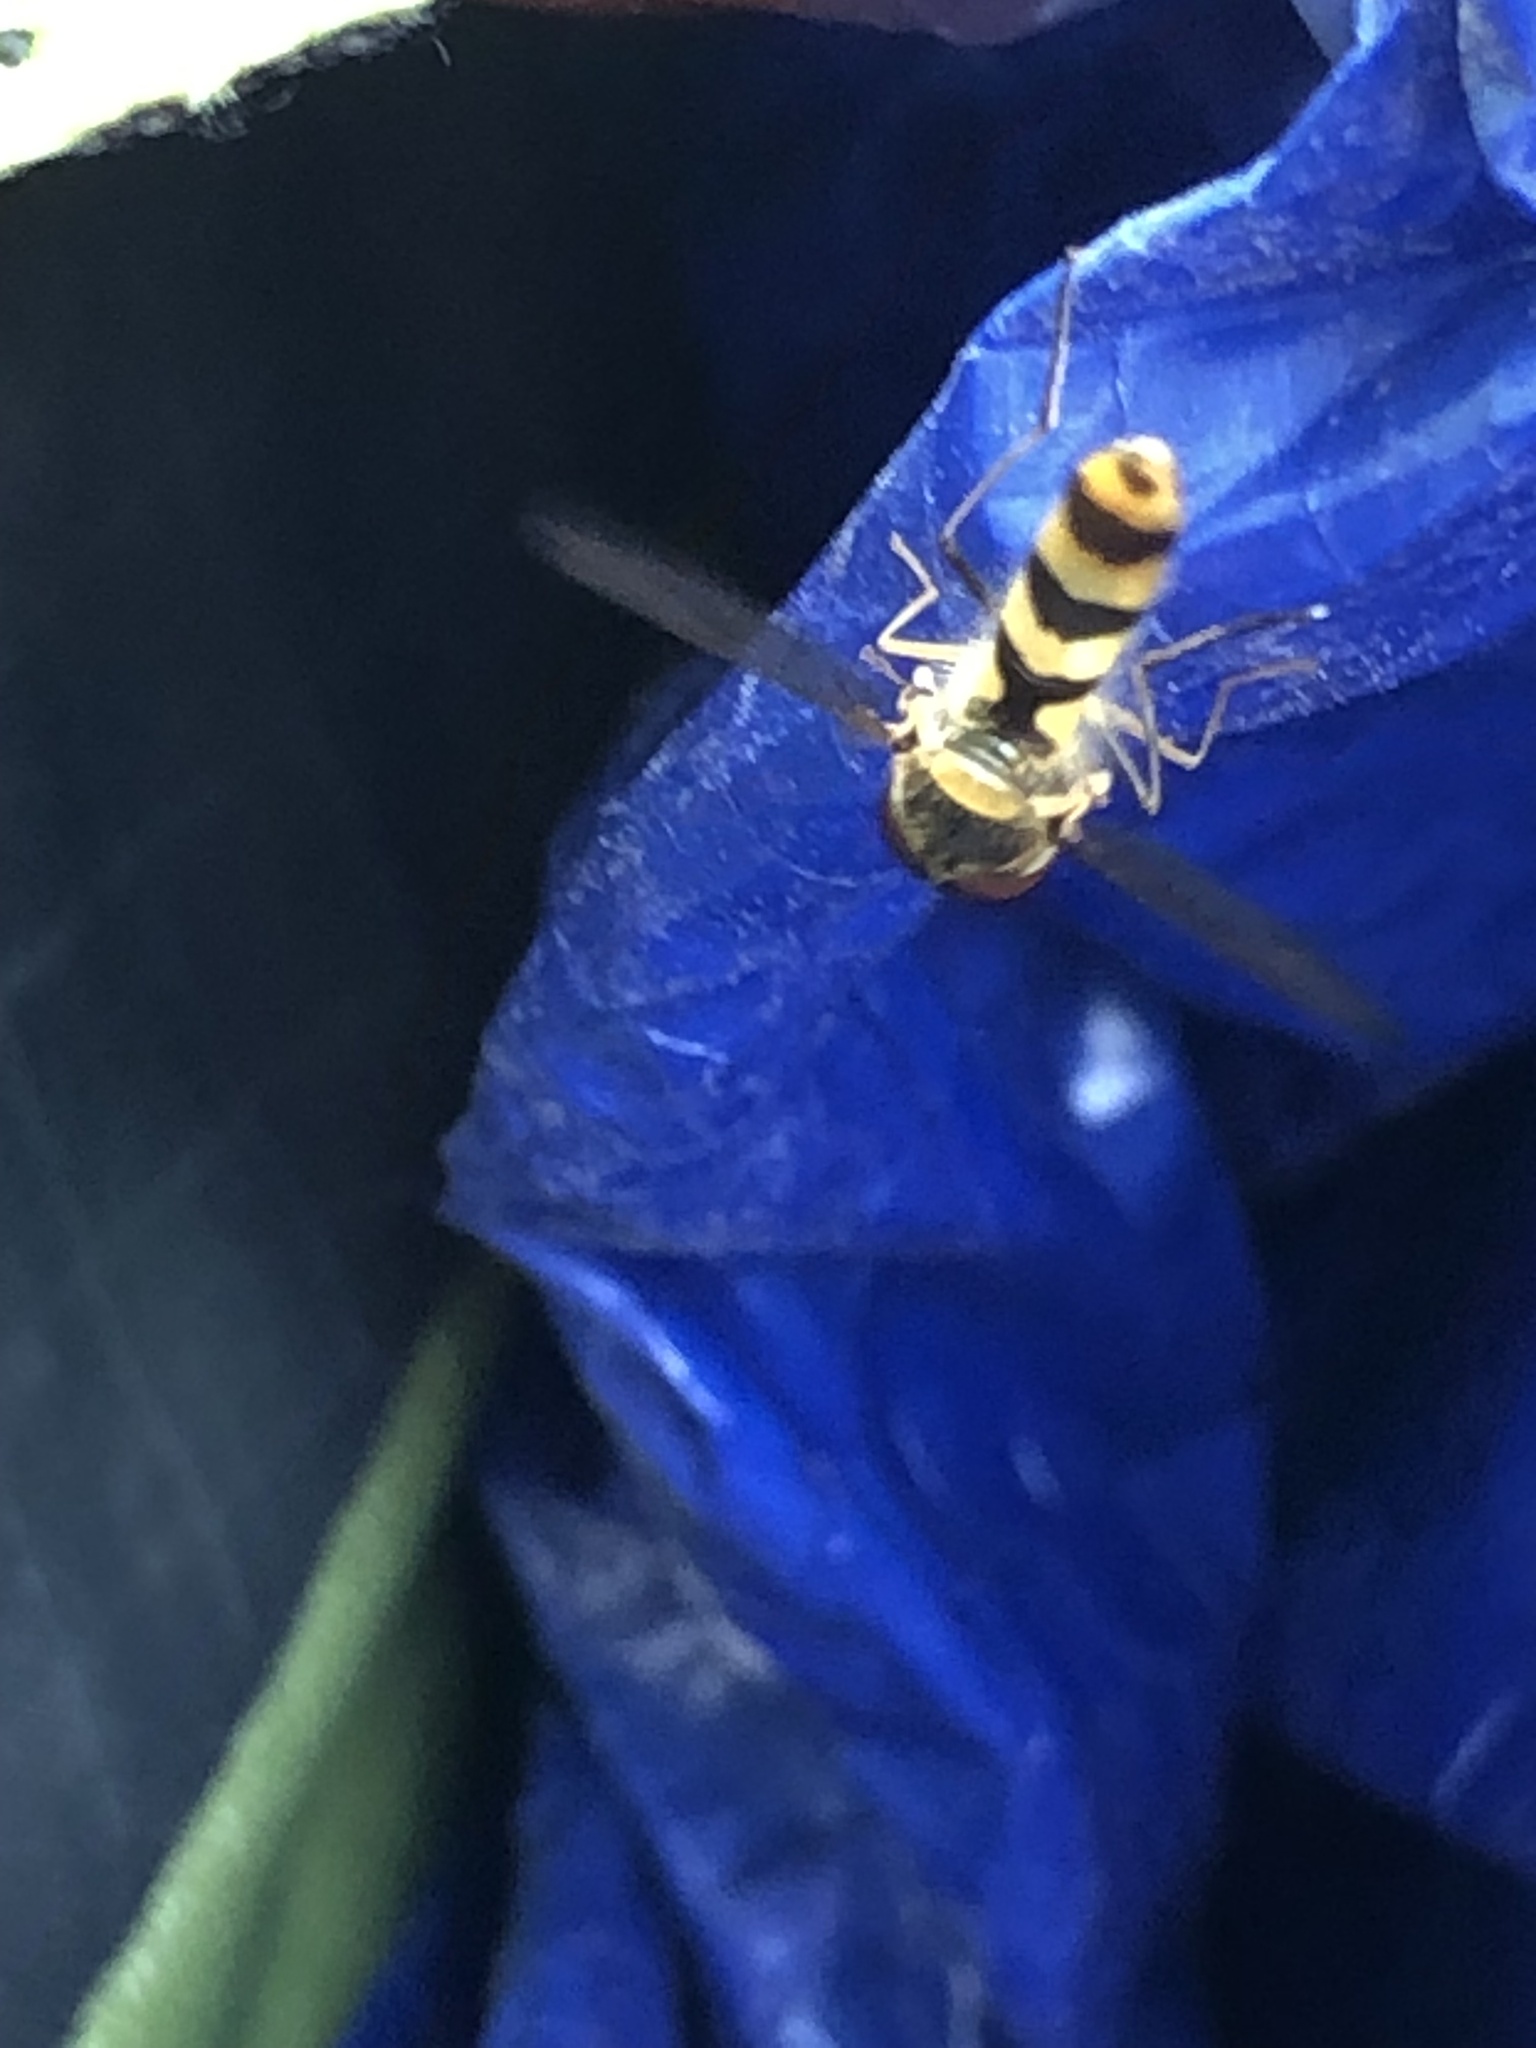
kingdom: Animalia
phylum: Arthropoda
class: Insecta
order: Diptera
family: Syrphidae
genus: Meliscaeva
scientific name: Meliscaeva cinctella
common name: American thintail fly
